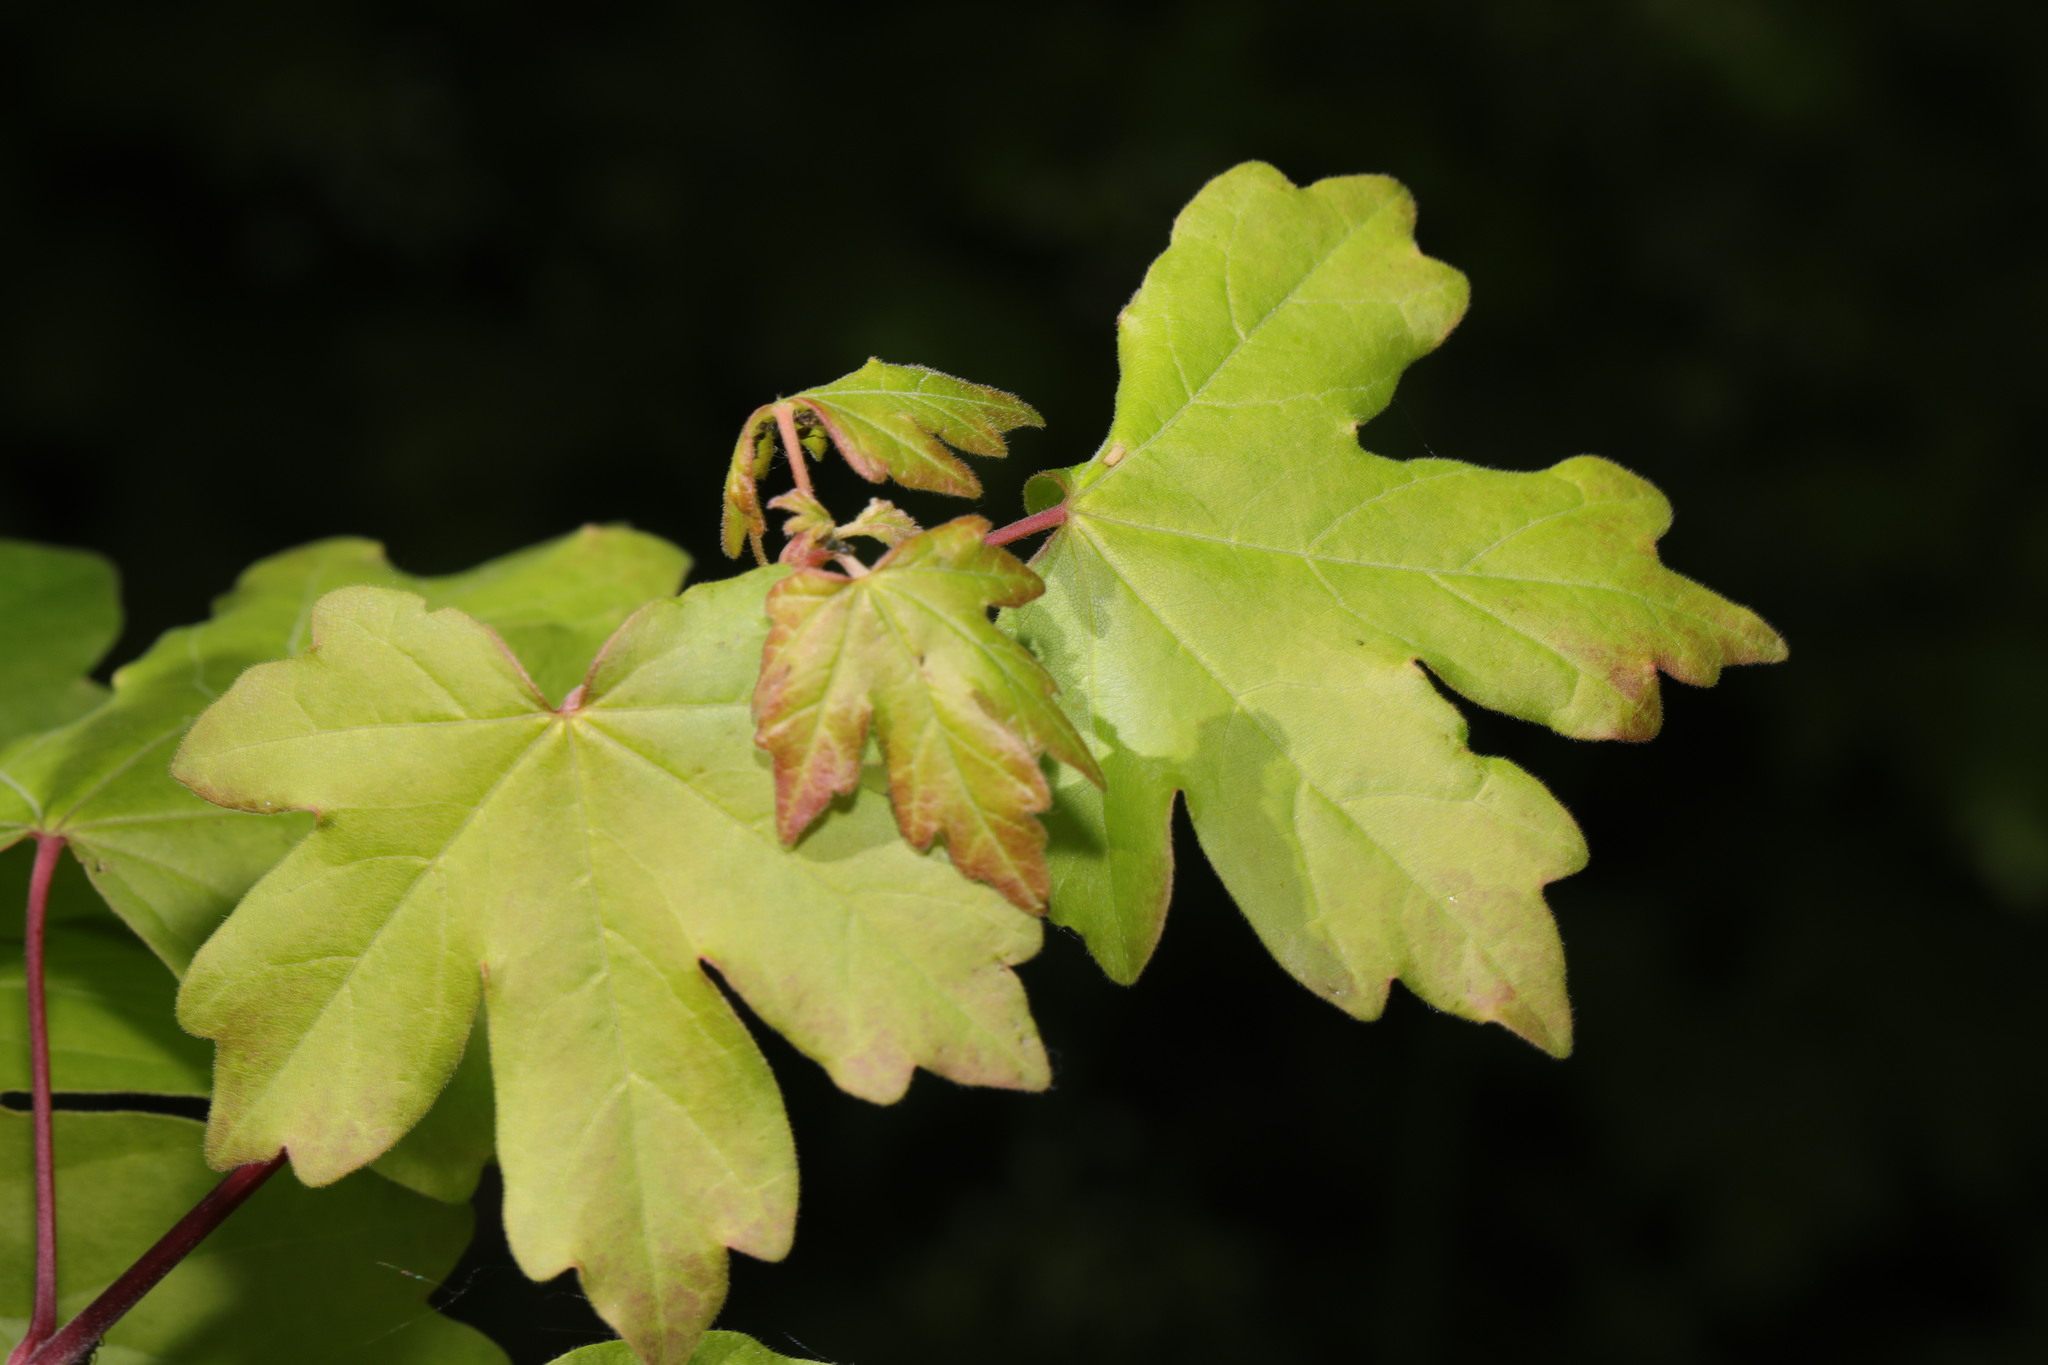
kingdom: Plantae
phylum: Tracheophyta
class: Magnoliopsida
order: Sapindales
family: Sapindaceae
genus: Acer
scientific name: Acer campestre
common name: Field maple
